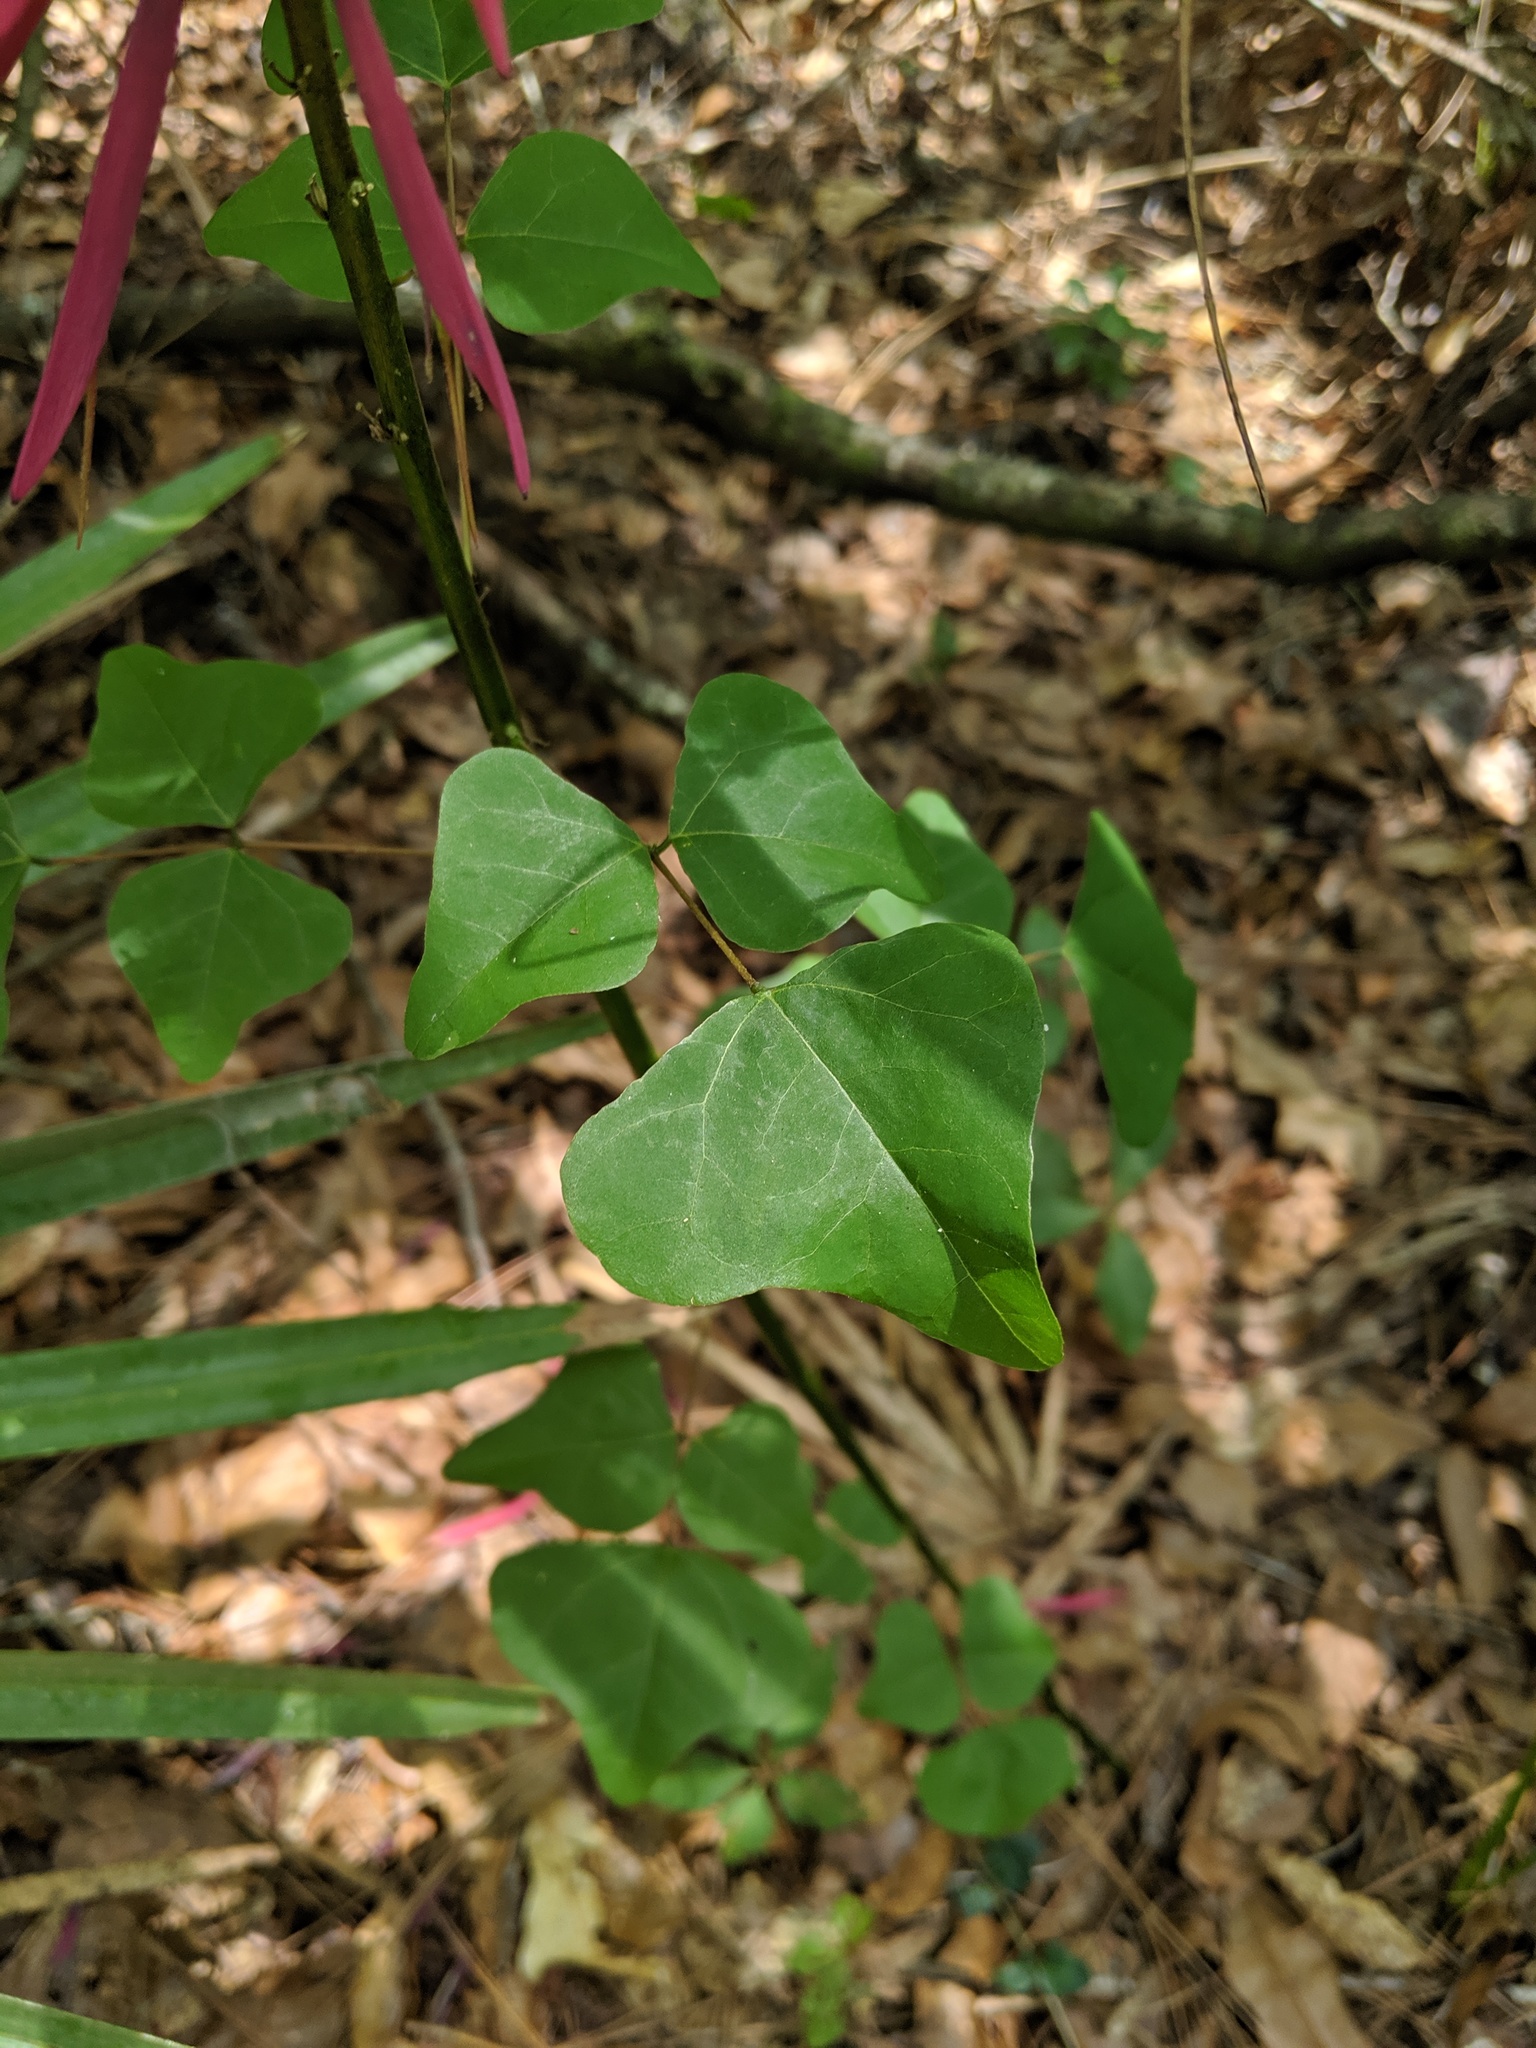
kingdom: Plantae
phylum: Tracheophyta
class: Magnoliopsida
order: Fabales
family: Fabaceae
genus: Erythrina
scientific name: Erythrina herbacea
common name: Coral-bean
